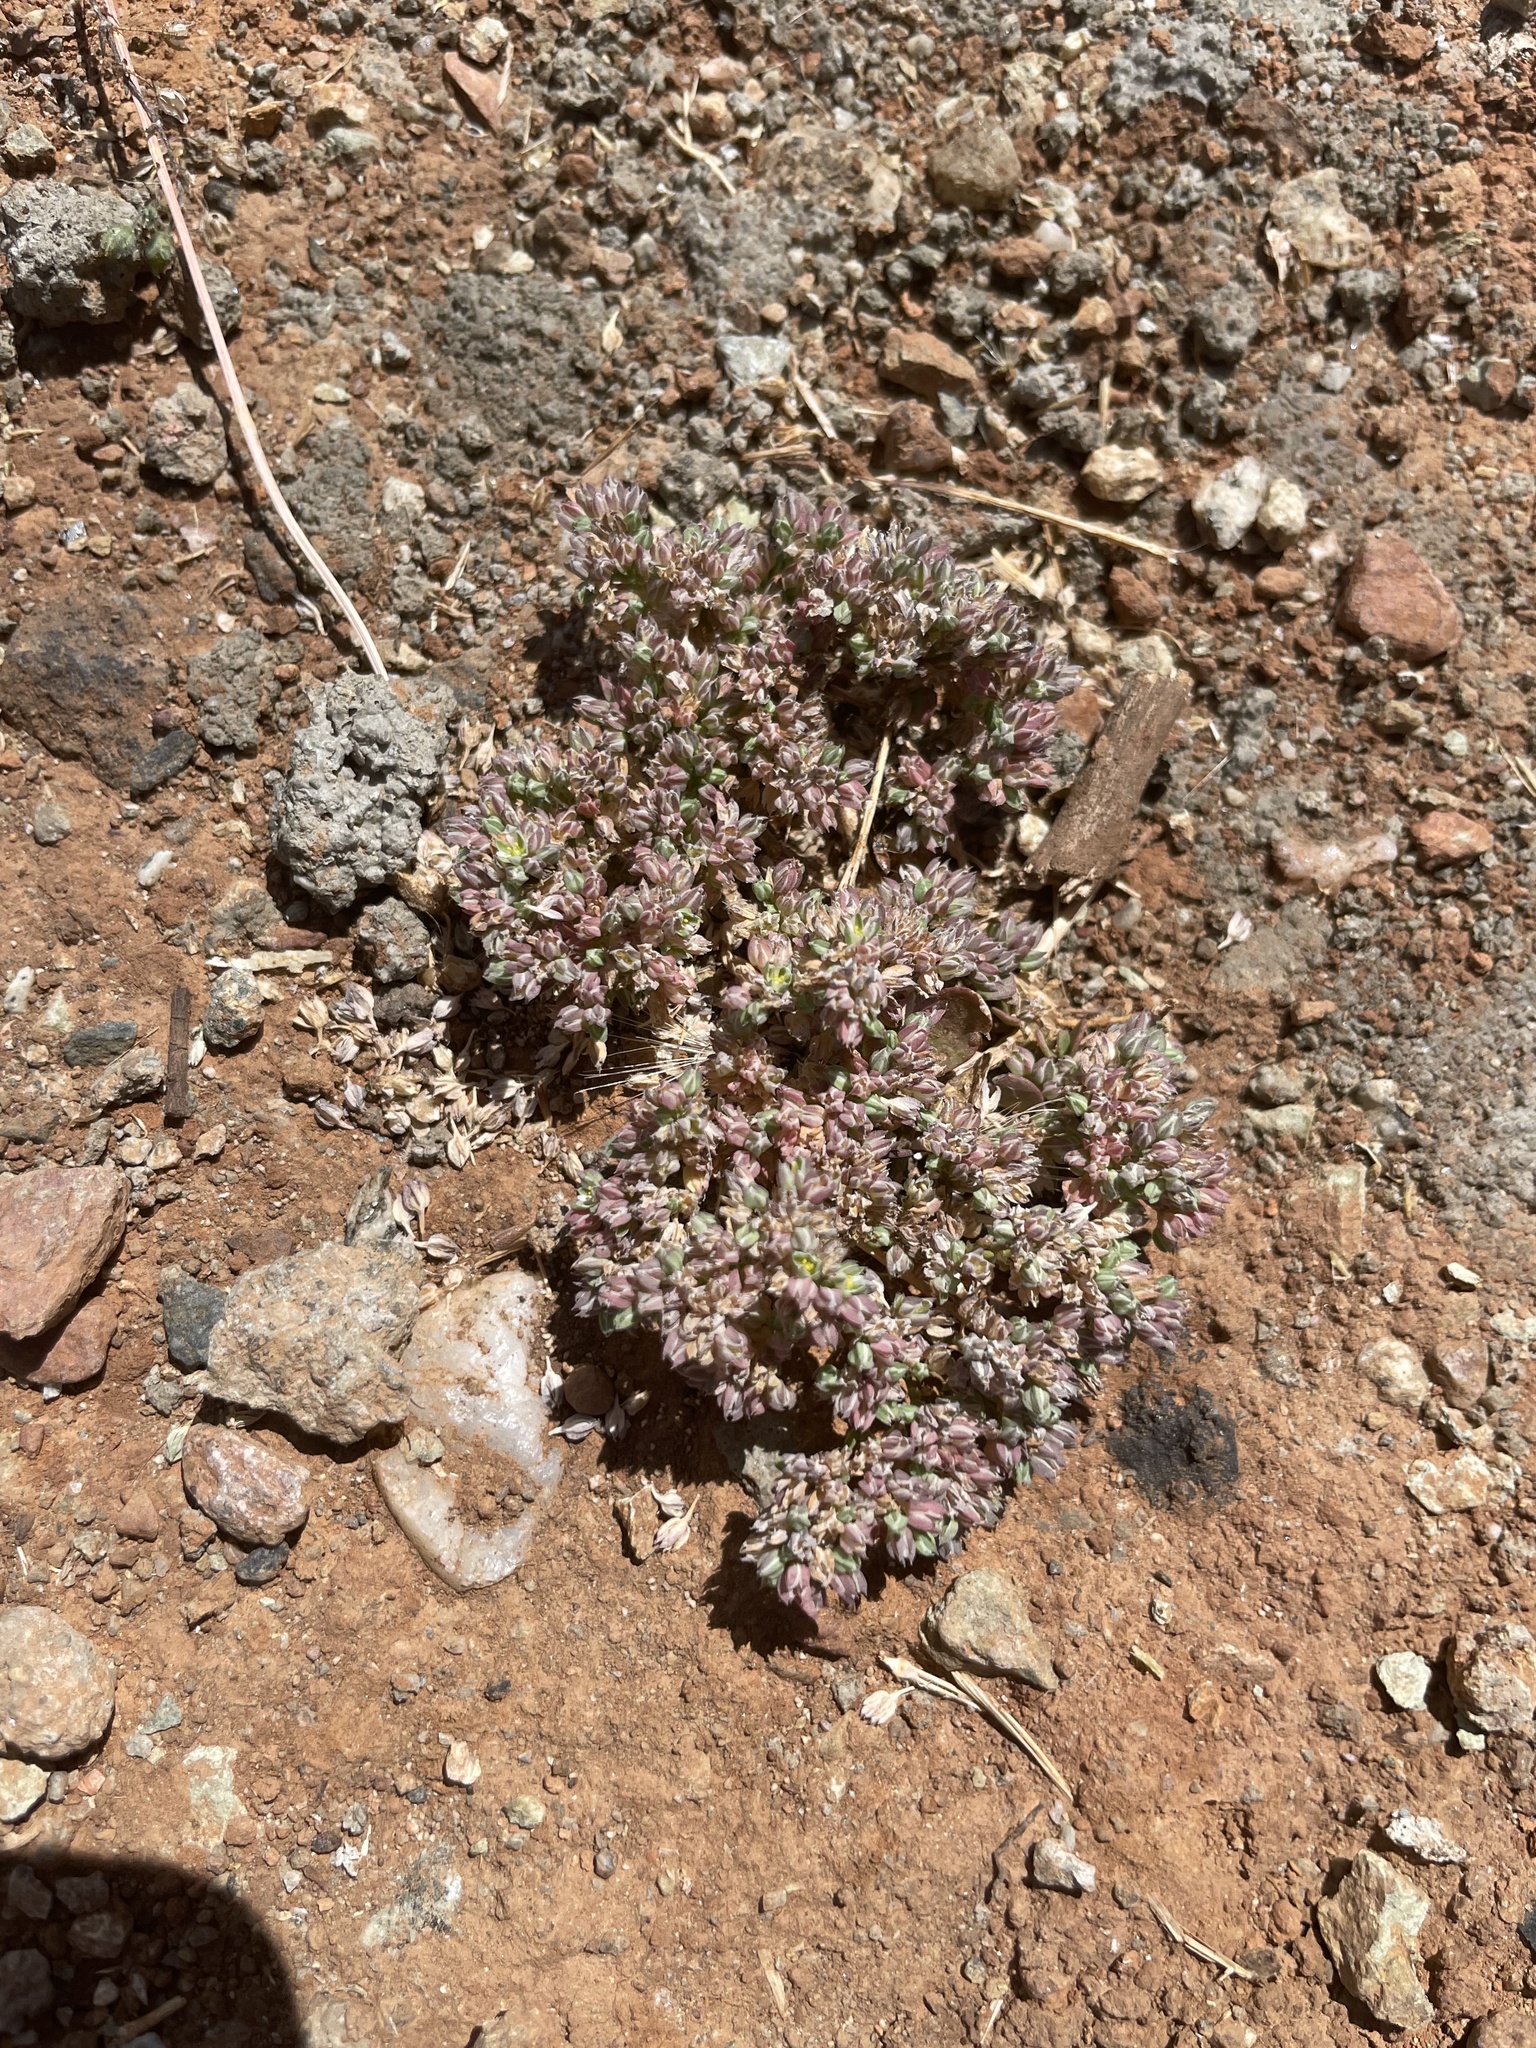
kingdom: Plantae
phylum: Tracheophyta
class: Magnoliopsida
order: Caryophyllales
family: Caryophyllaceae
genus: Polycarpon
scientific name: Polycarpon tetraphyllum
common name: Four-leaved all-seed
